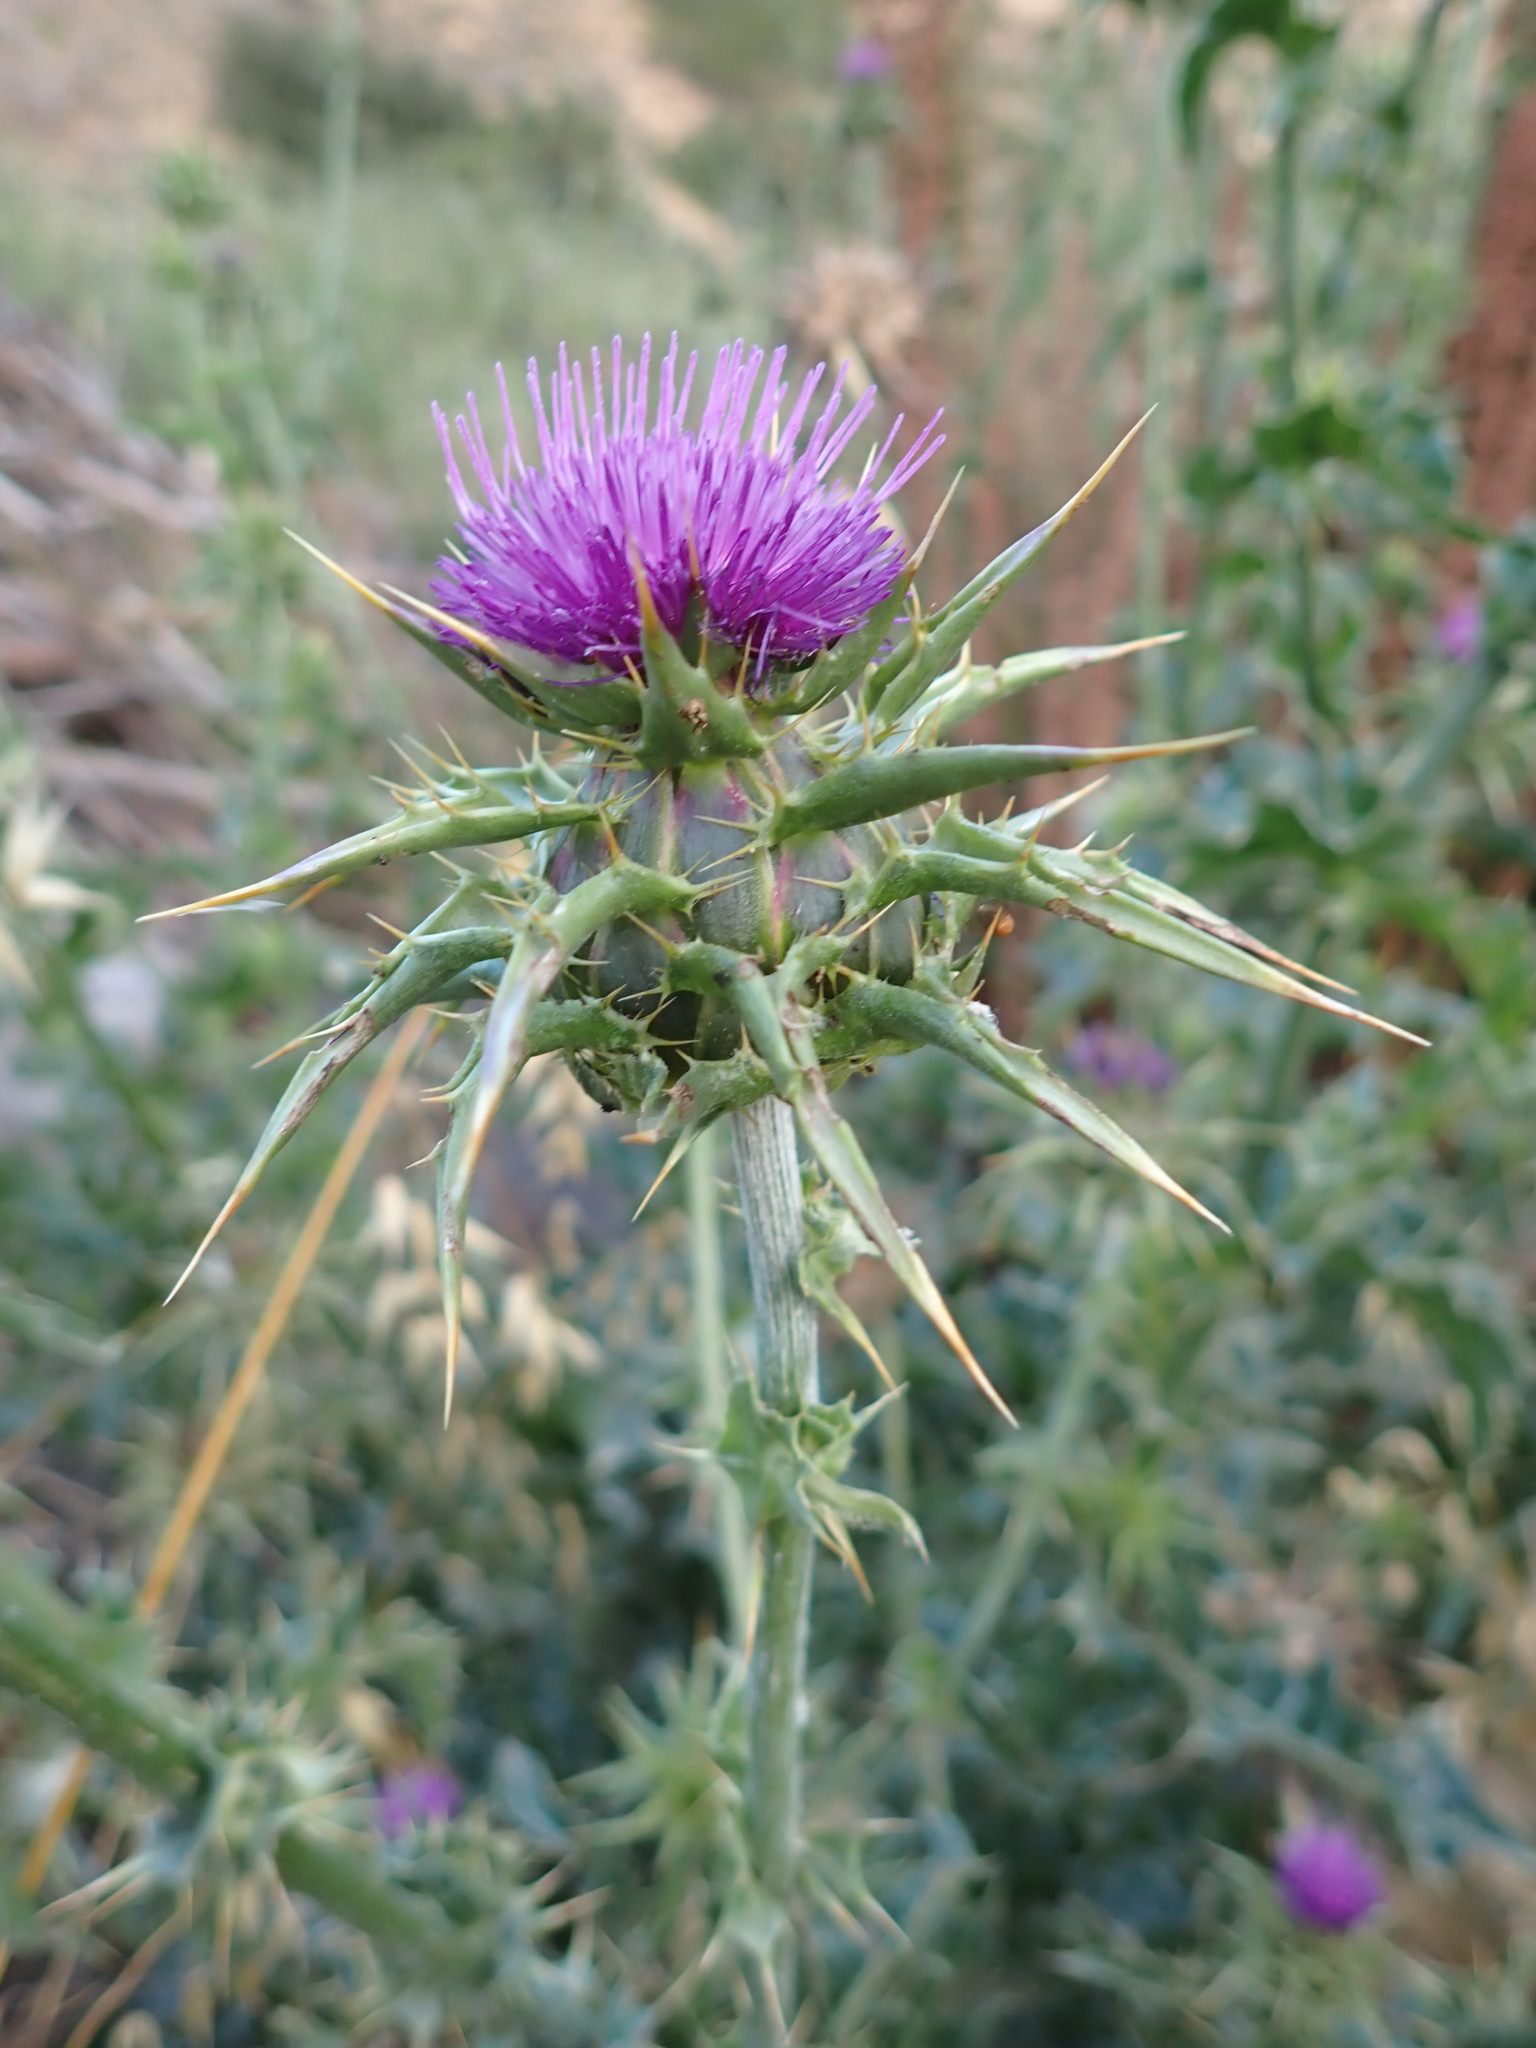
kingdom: Plantae
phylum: Tracheophyta
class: Magnoliopsida
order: Asterales
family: Asteraceae
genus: Silybum
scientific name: Silybum marianum
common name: Milk thistle
